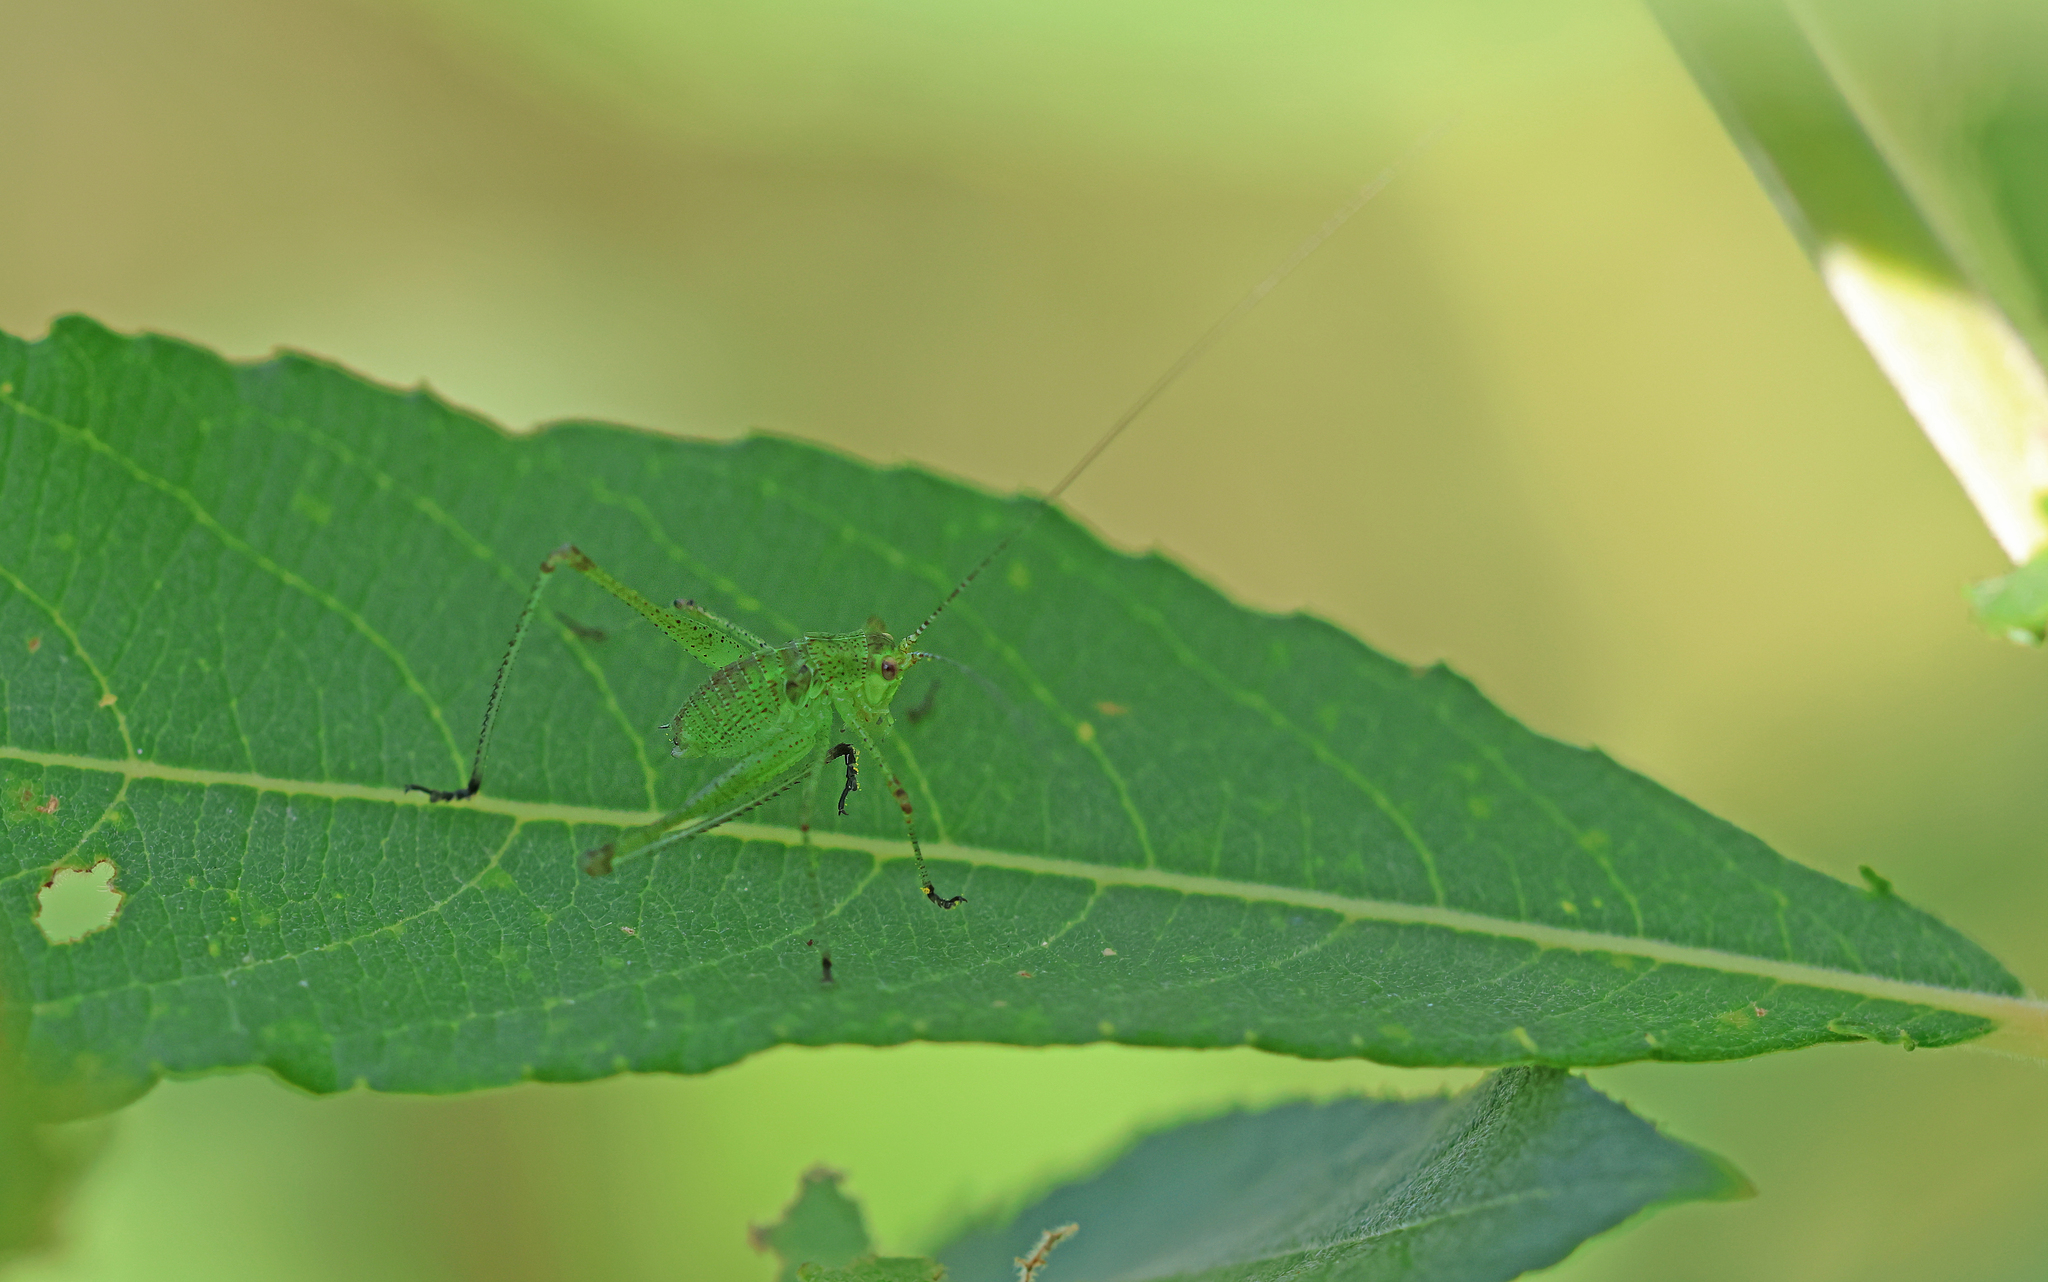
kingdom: Animalia
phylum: Arthropoda
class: Insecta
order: Orthoptera
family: Tettigoniidae
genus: Phaneroptera
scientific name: Phaneroptera nana
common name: Southern sickle bush-cricket
